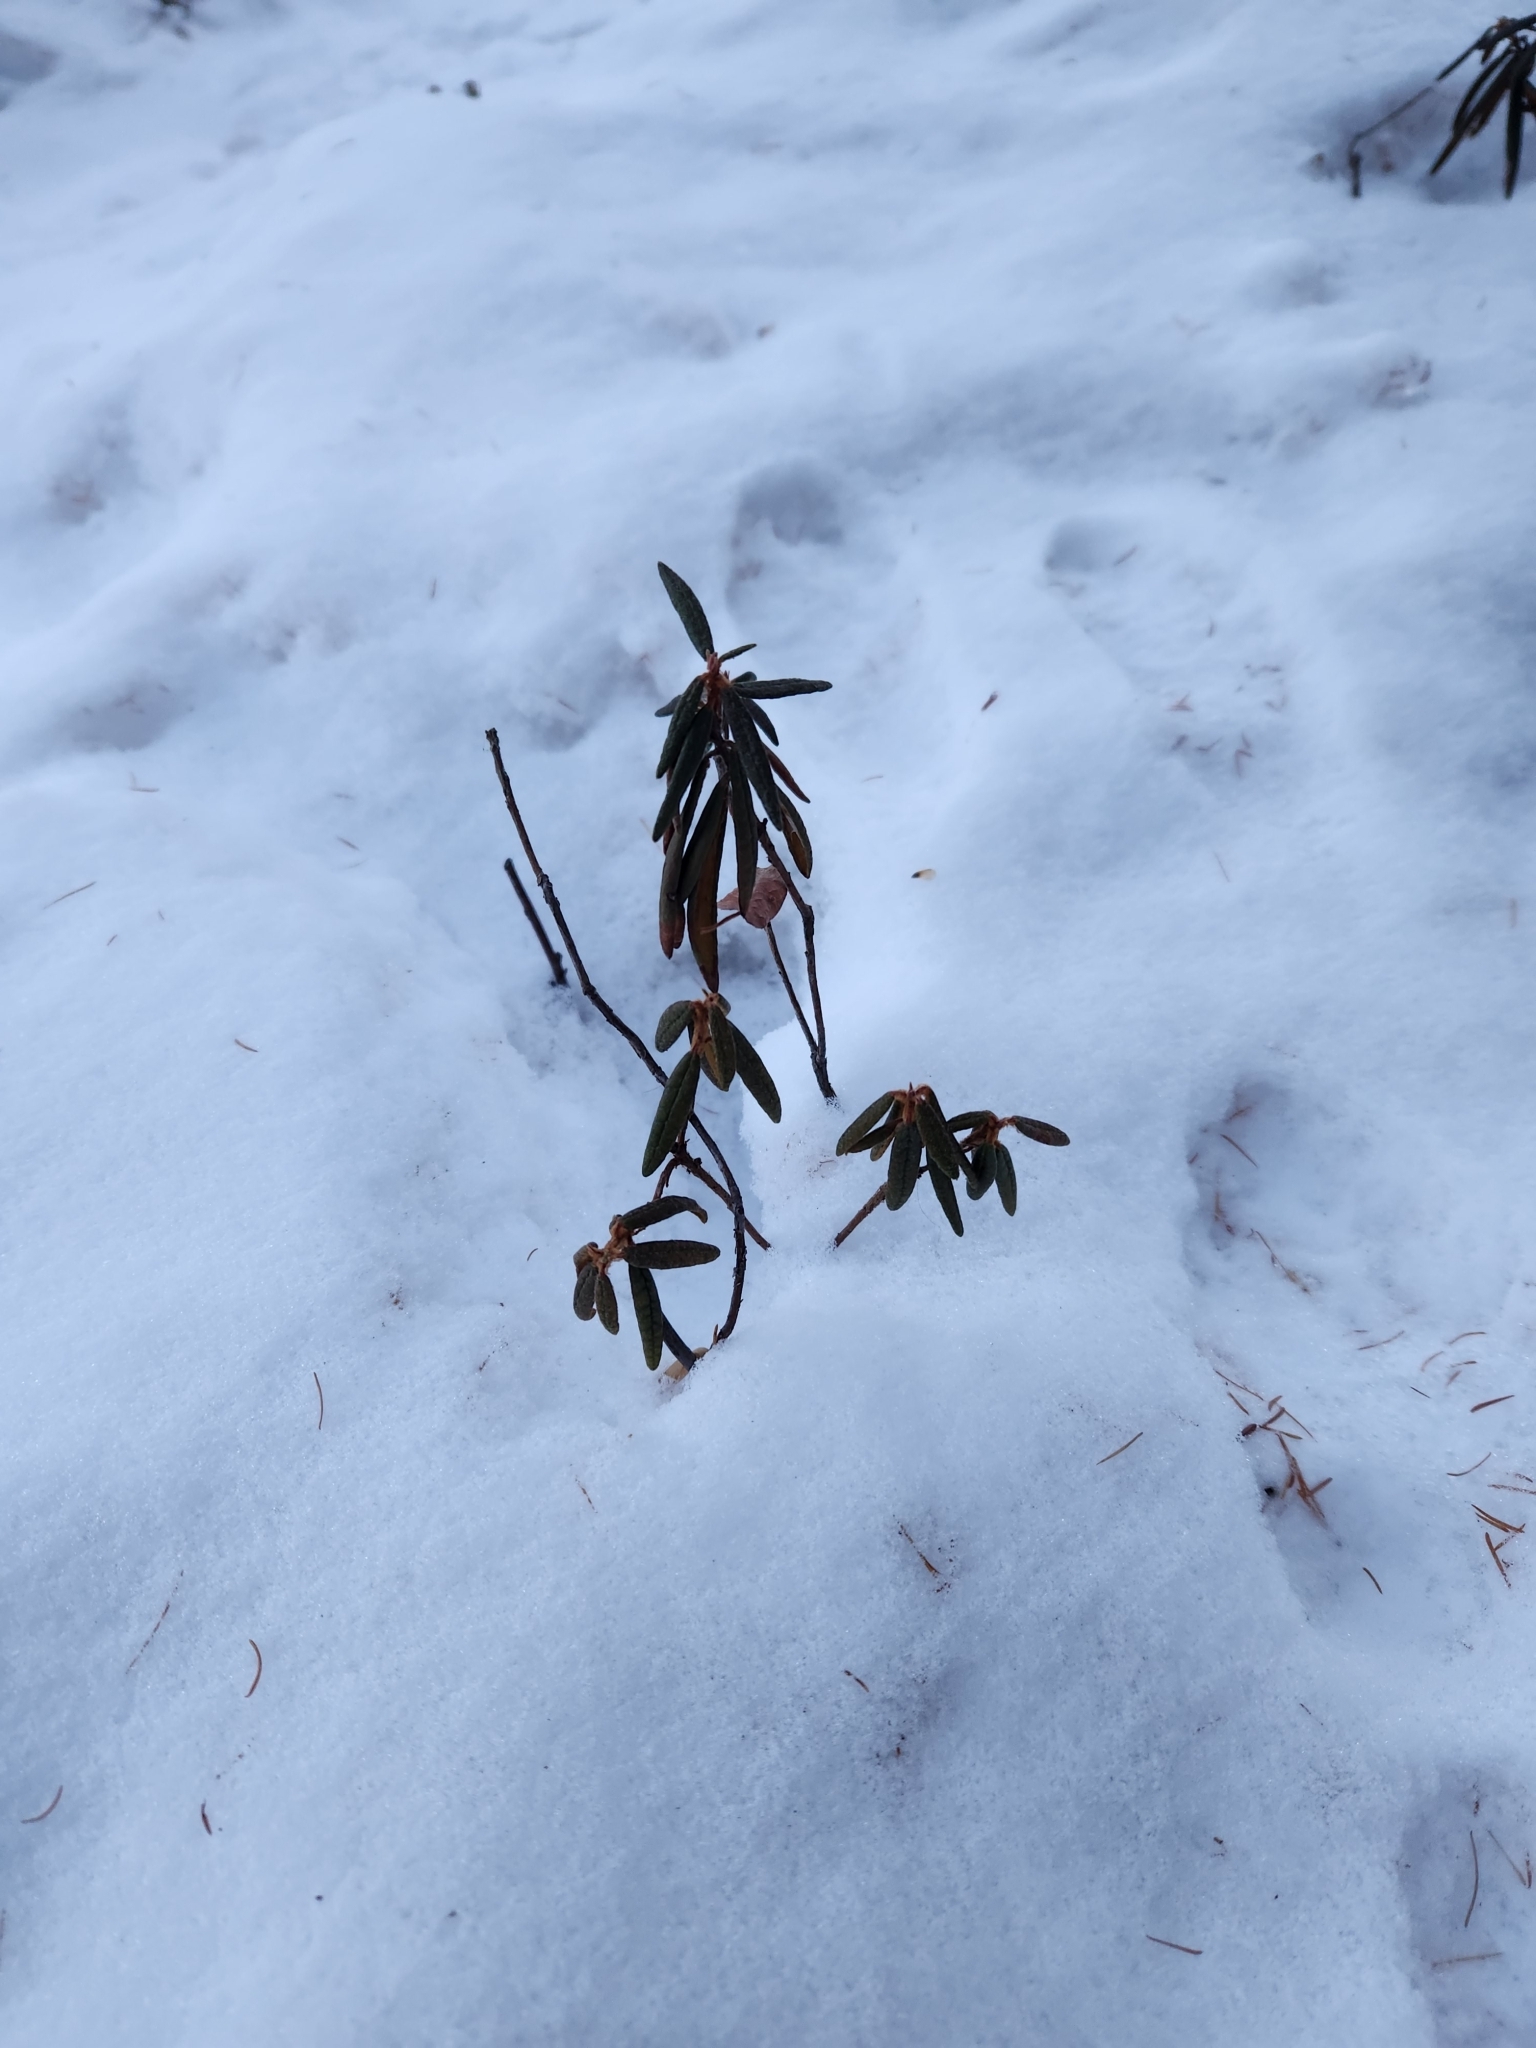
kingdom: Plantae
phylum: Tracheophyta
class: Magnoliopsida
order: Ericales
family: Ericaceae
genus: Rhododendron
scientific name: Rhododendron groenlandicum
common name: Bog labrador tea
